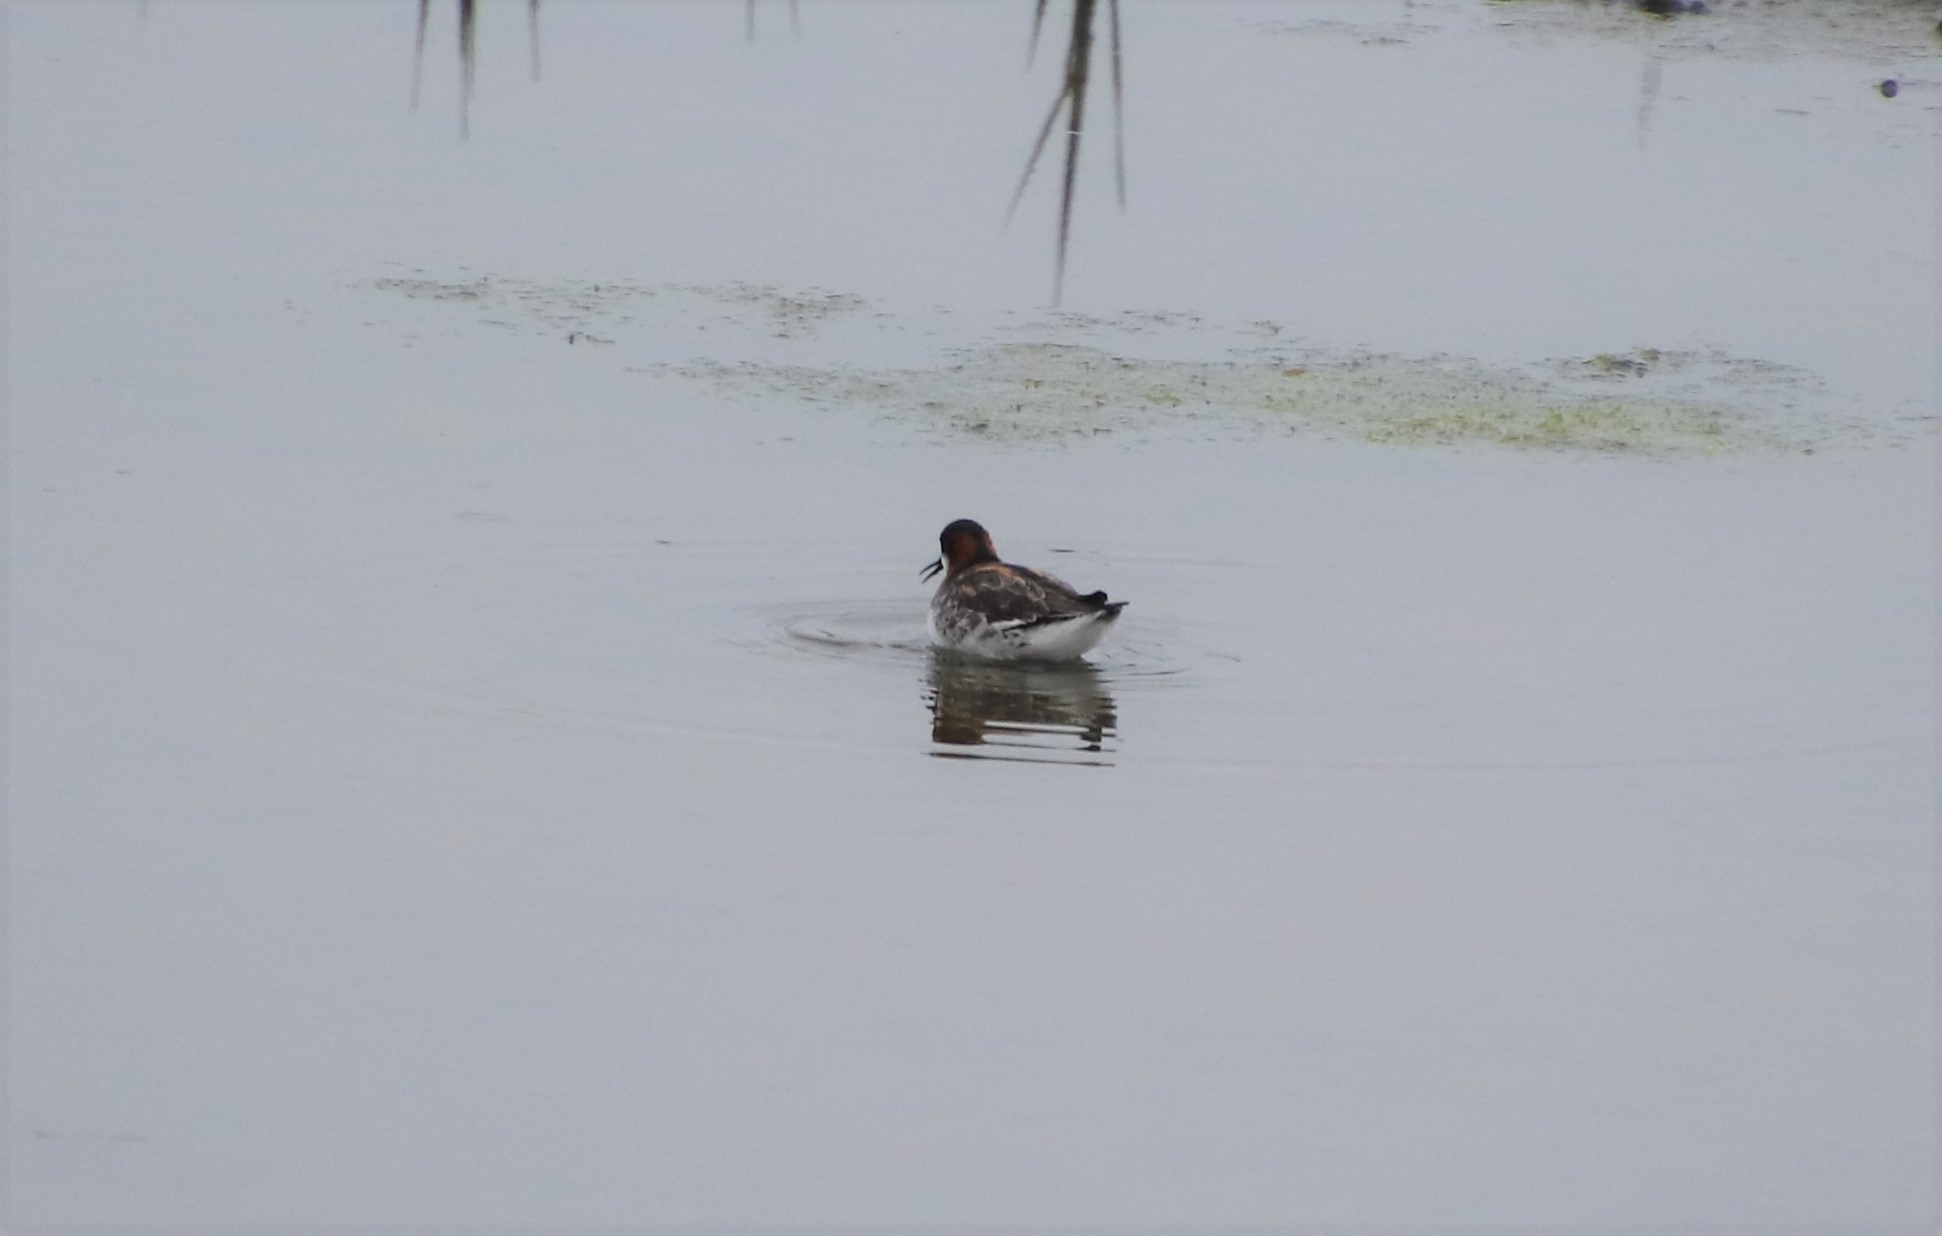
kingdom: Animalia
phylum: Chordata
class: Aves
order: Charadriiformes
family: Scolopacidae
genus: Phalaropus
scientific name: Phalaropus lobatus
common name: Red-necked phalarope
